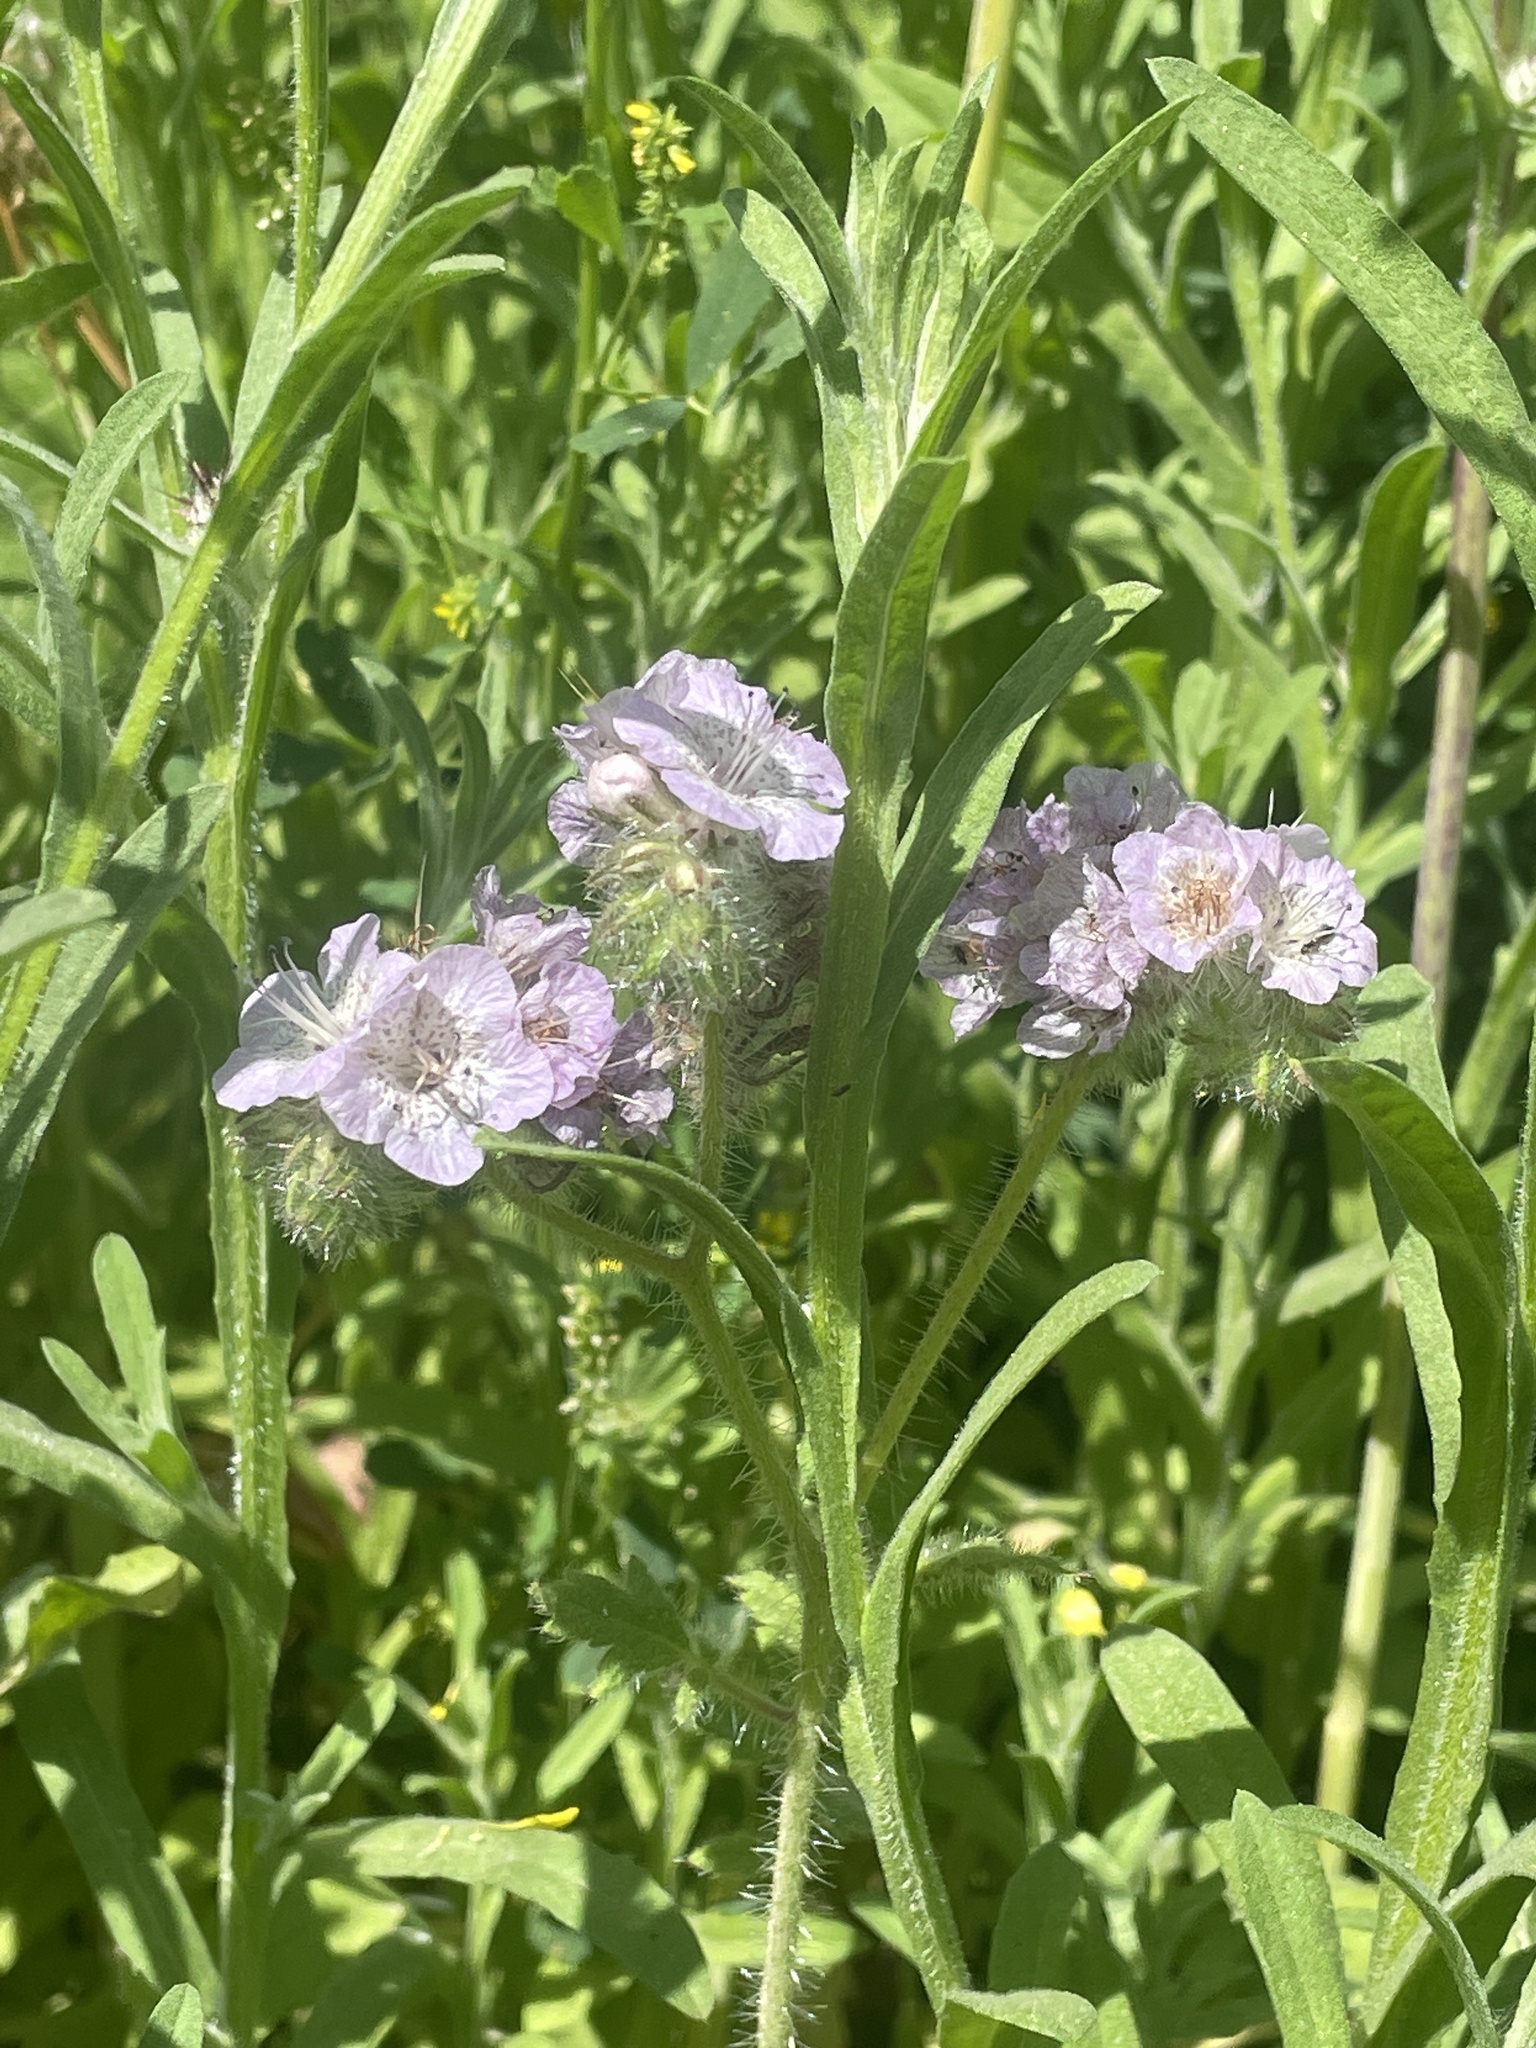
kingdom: Plantae
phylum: Tracheophyta
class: Magnoliopsida
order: Boraginales
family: Hydrophyllaceae
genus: Phacelia
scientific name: Phacelia cicutaria
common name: Caterpillar phacelia
